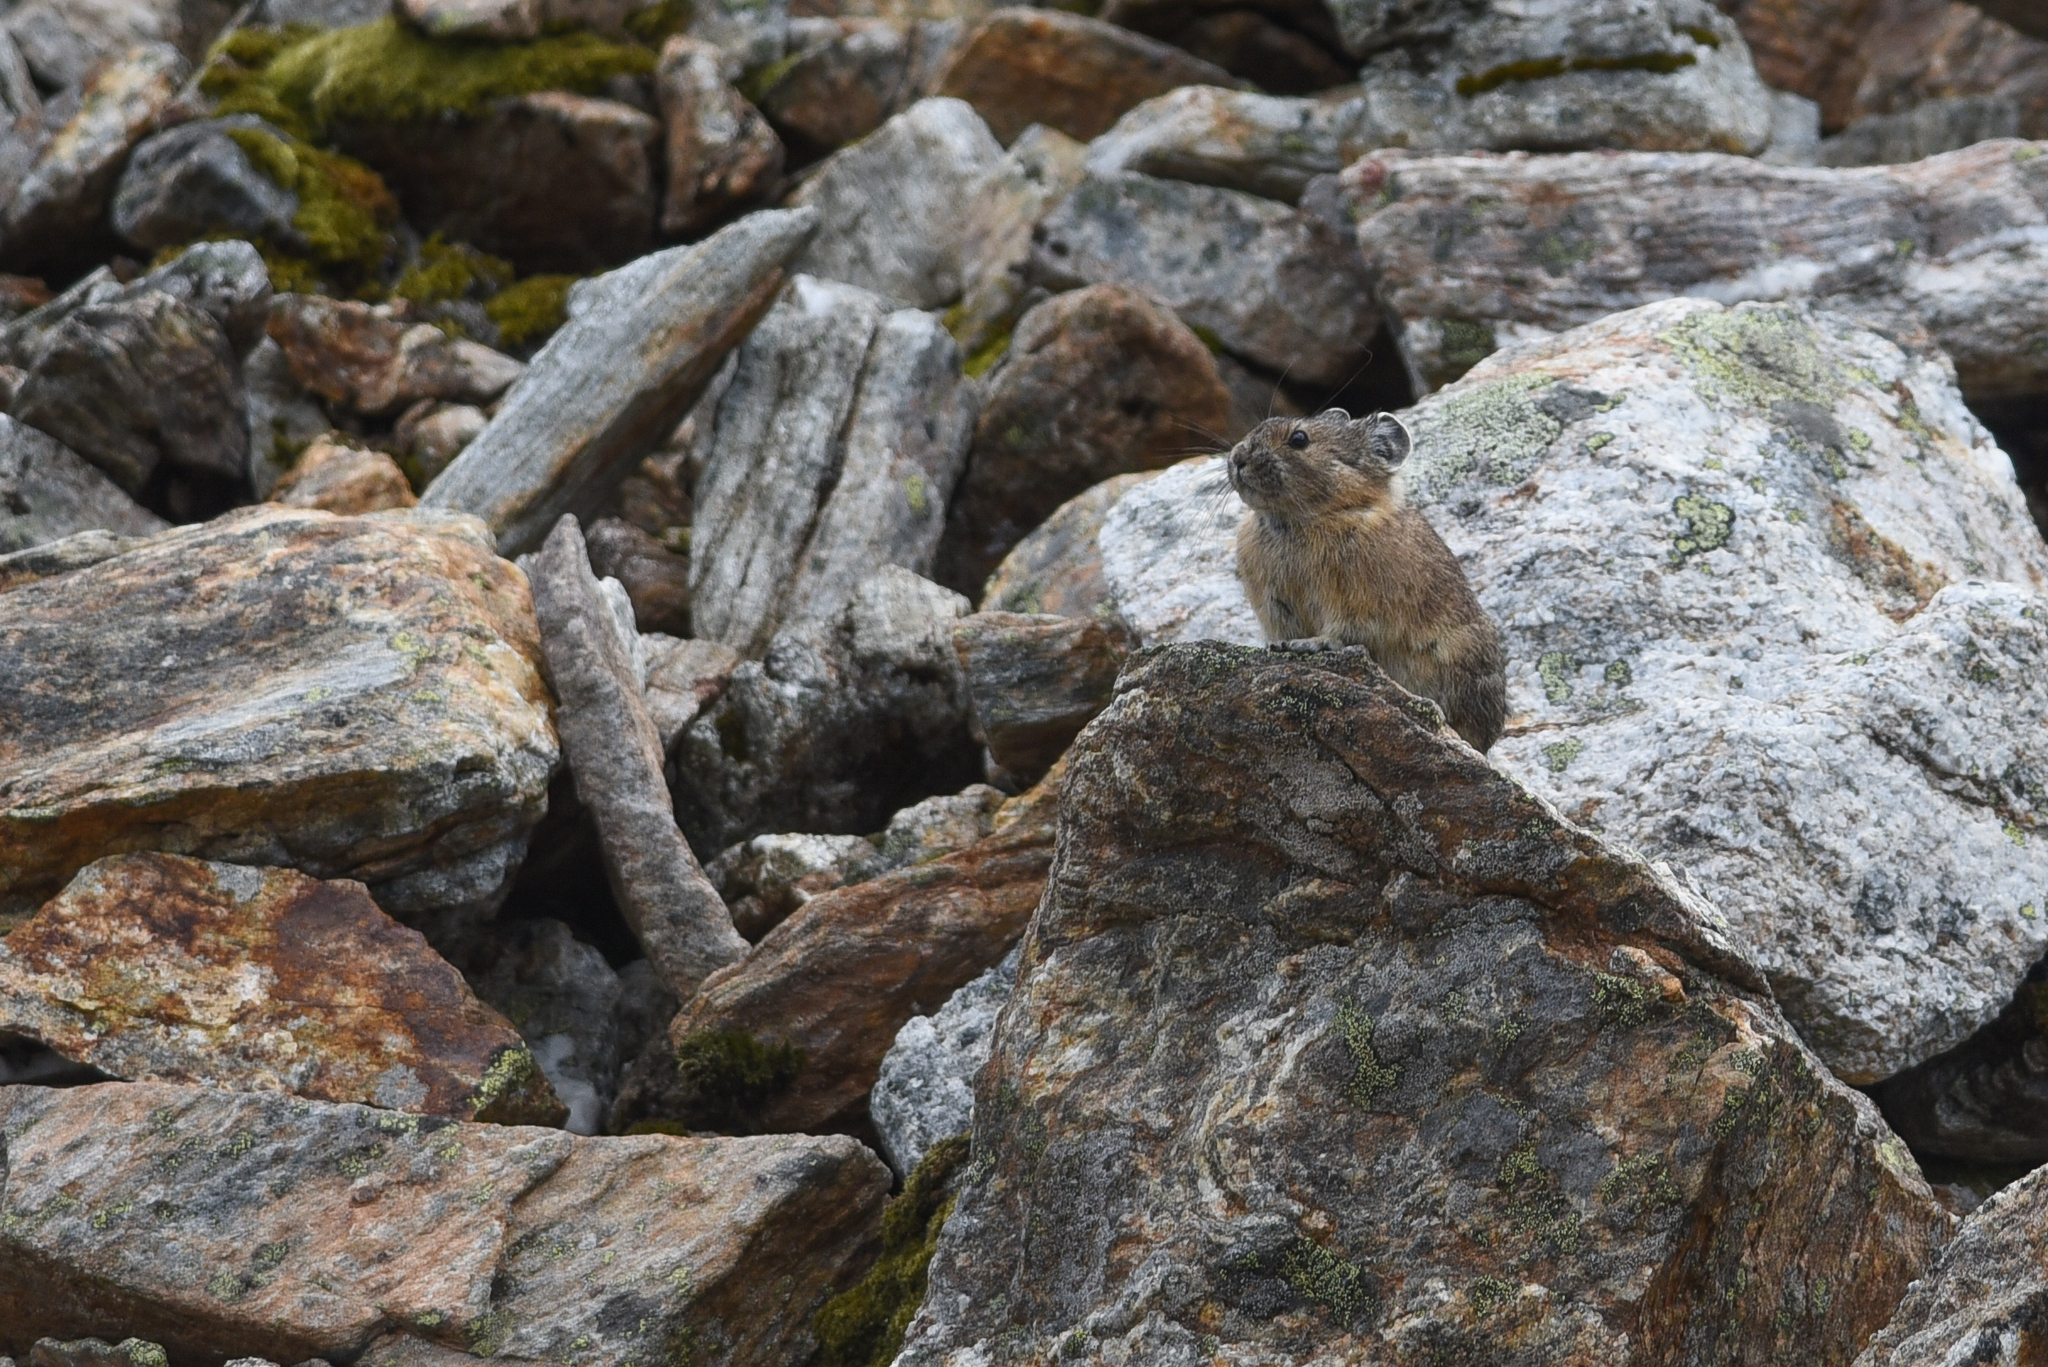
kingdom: Animalia
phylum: Chordata
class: Mammalia
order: Lagomorpha
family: Ochotonidae
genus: Ochotona
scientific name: Ochotona princeps
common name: American pika
